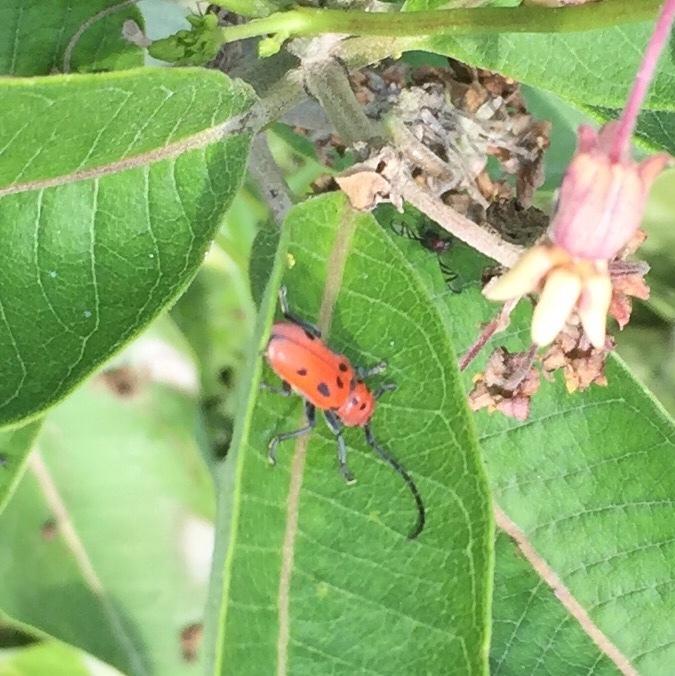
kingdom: Animalia
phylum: Arthropoda
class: Insecta
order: Coleoptera
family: Cerambycidae
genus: Tetraopes
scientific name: Tetraopes tetrophthalmus
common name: Red milkweed beetle
